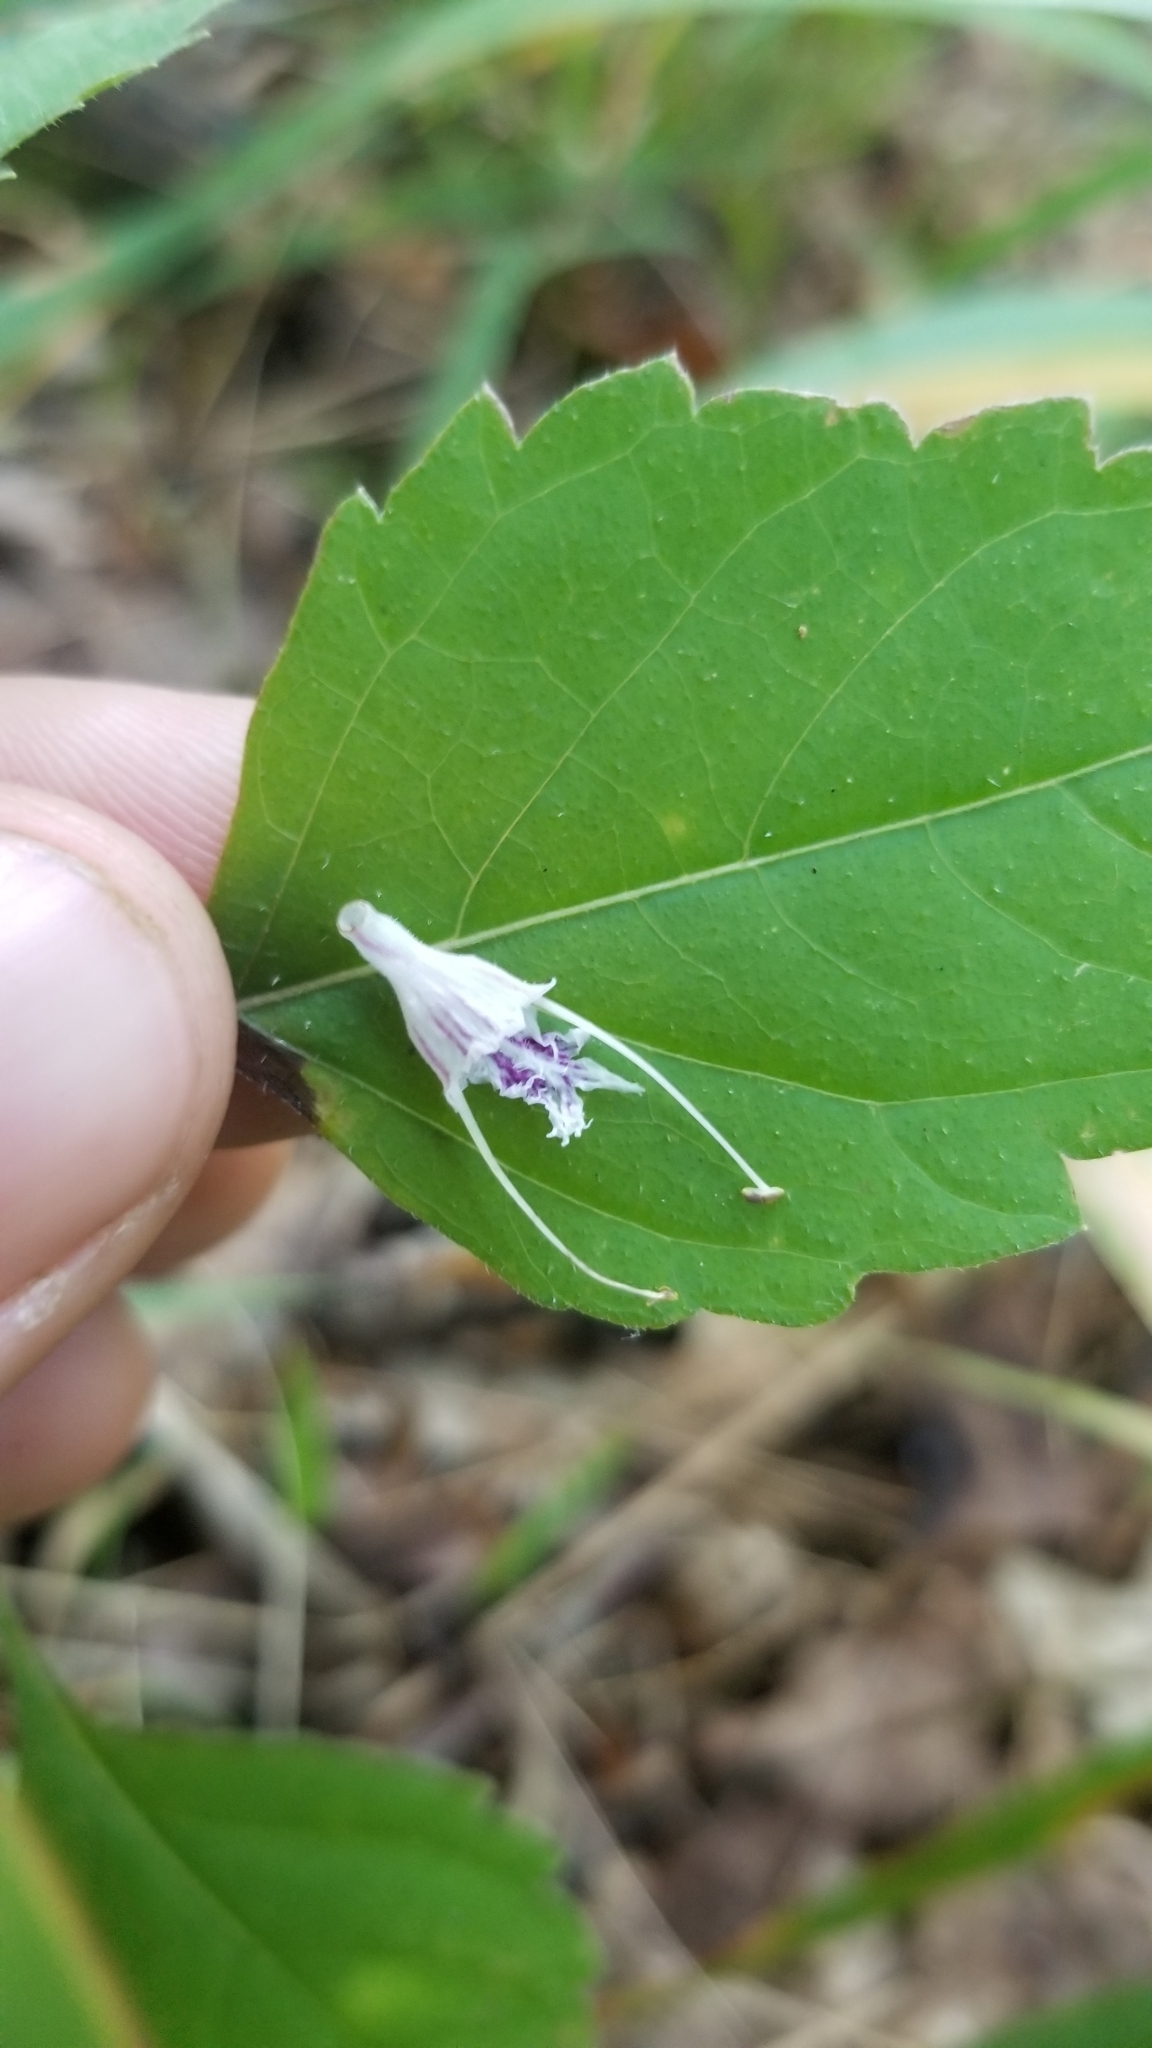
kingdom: Plantae
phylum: Tracheophyta
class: Magnoliopsida
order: Lamiales
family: Lamiaceae
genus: Collinsonia
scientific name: Collinsonia canadensis
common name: Northern horsebalm
